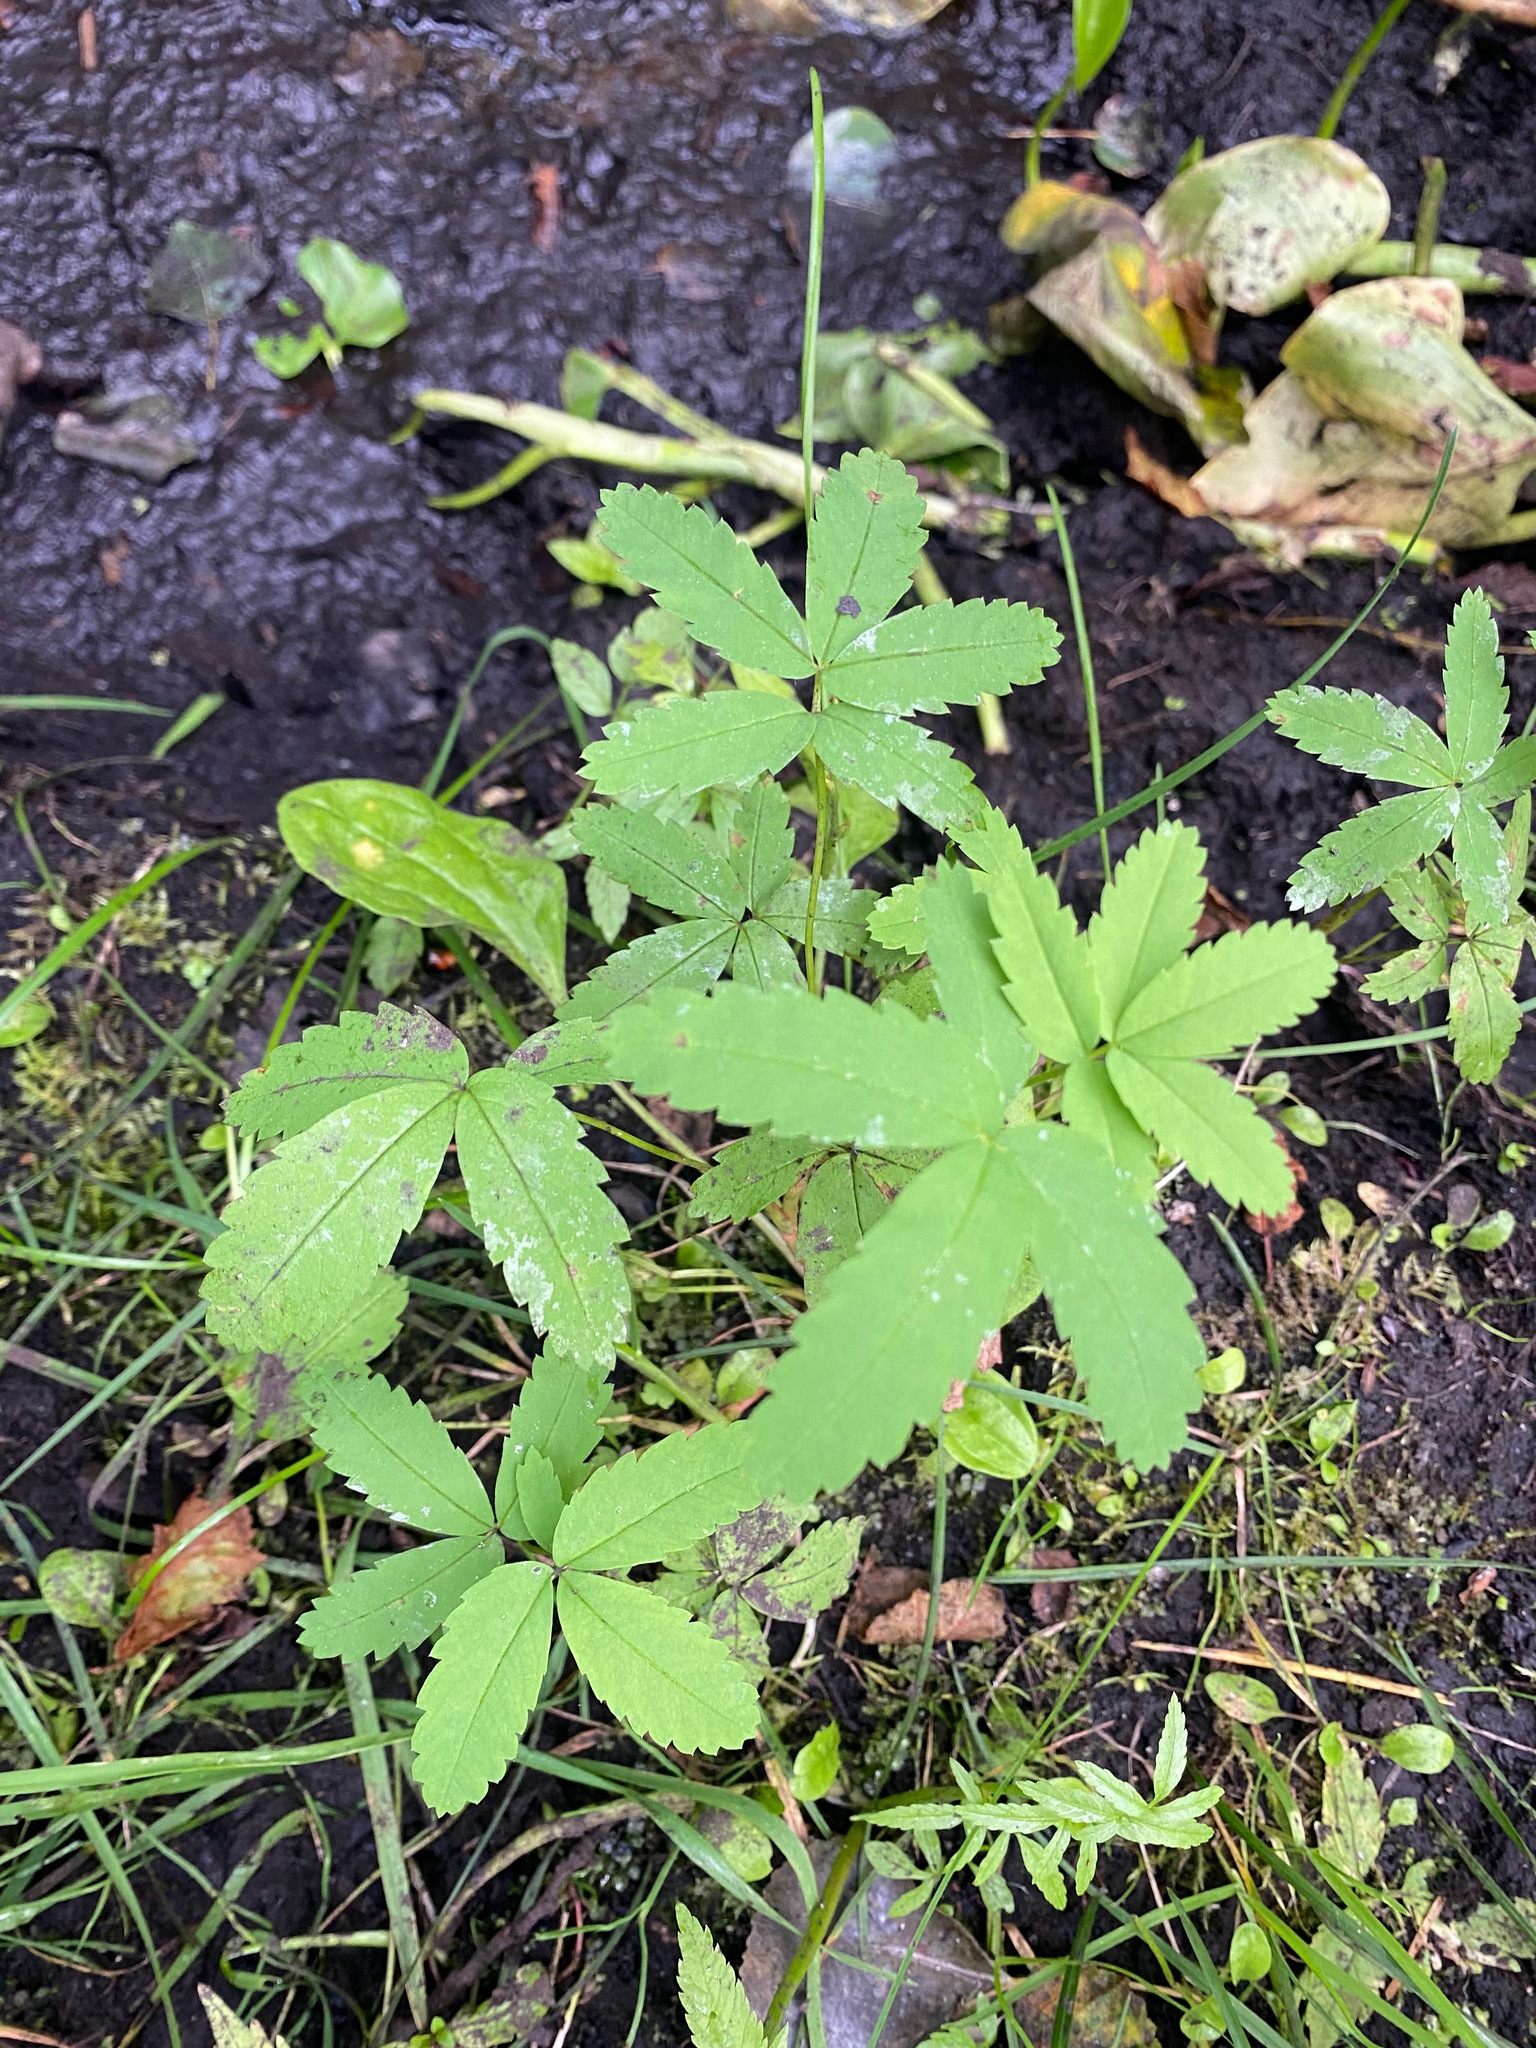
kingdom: Plantae
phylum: Tracheophyta
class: Magnoliopsida
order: Rosales
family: Rosaceae
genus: Comarum
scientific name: Comarum palustre
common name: Marsh cinquefoil
